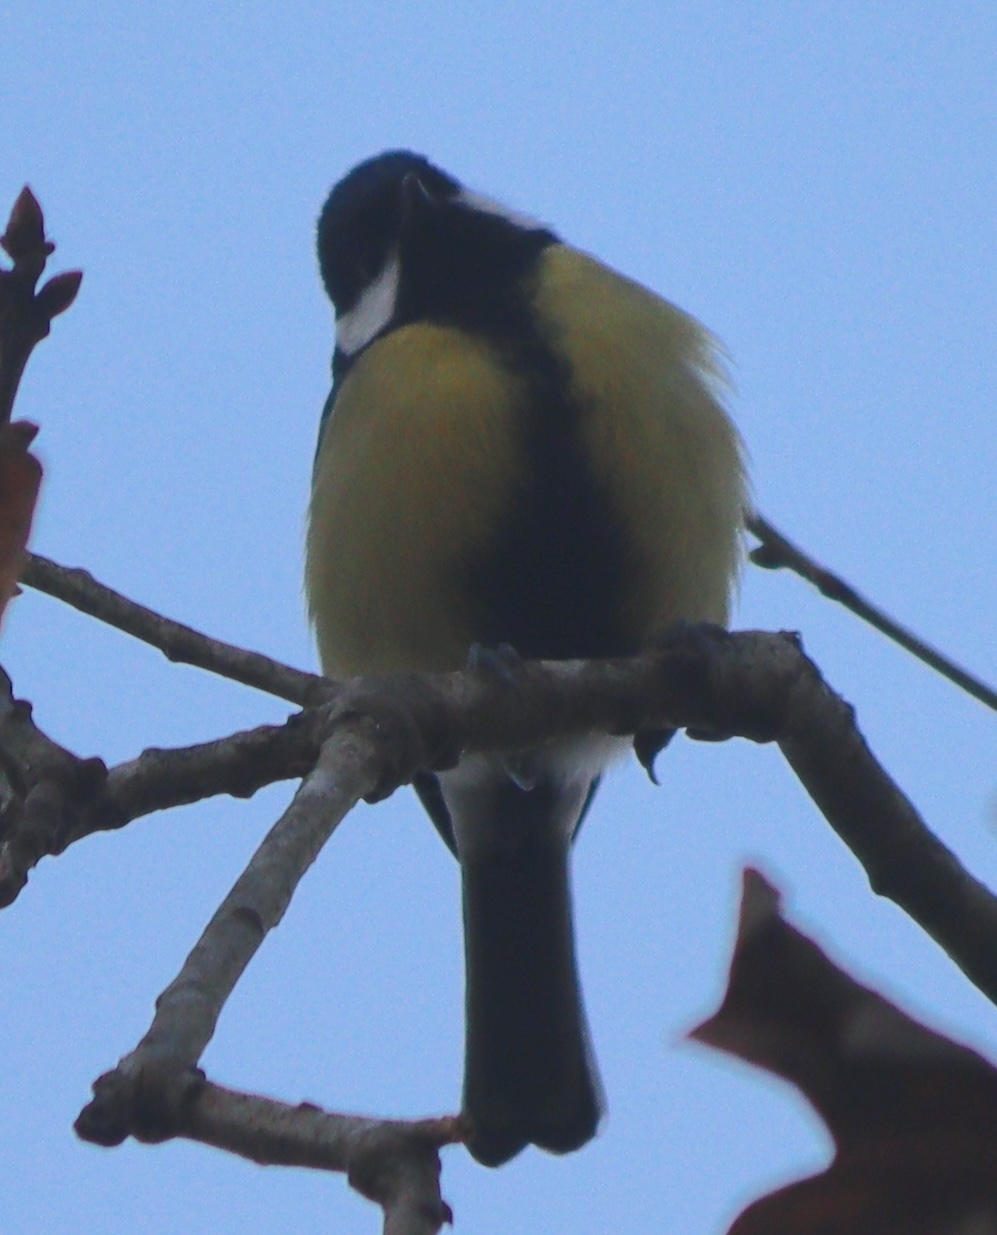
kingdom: Animalia
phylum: Chordata
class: Aves
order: Passeriformes
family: Paridae
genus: Parus
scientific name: Parus major
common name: Great tit
